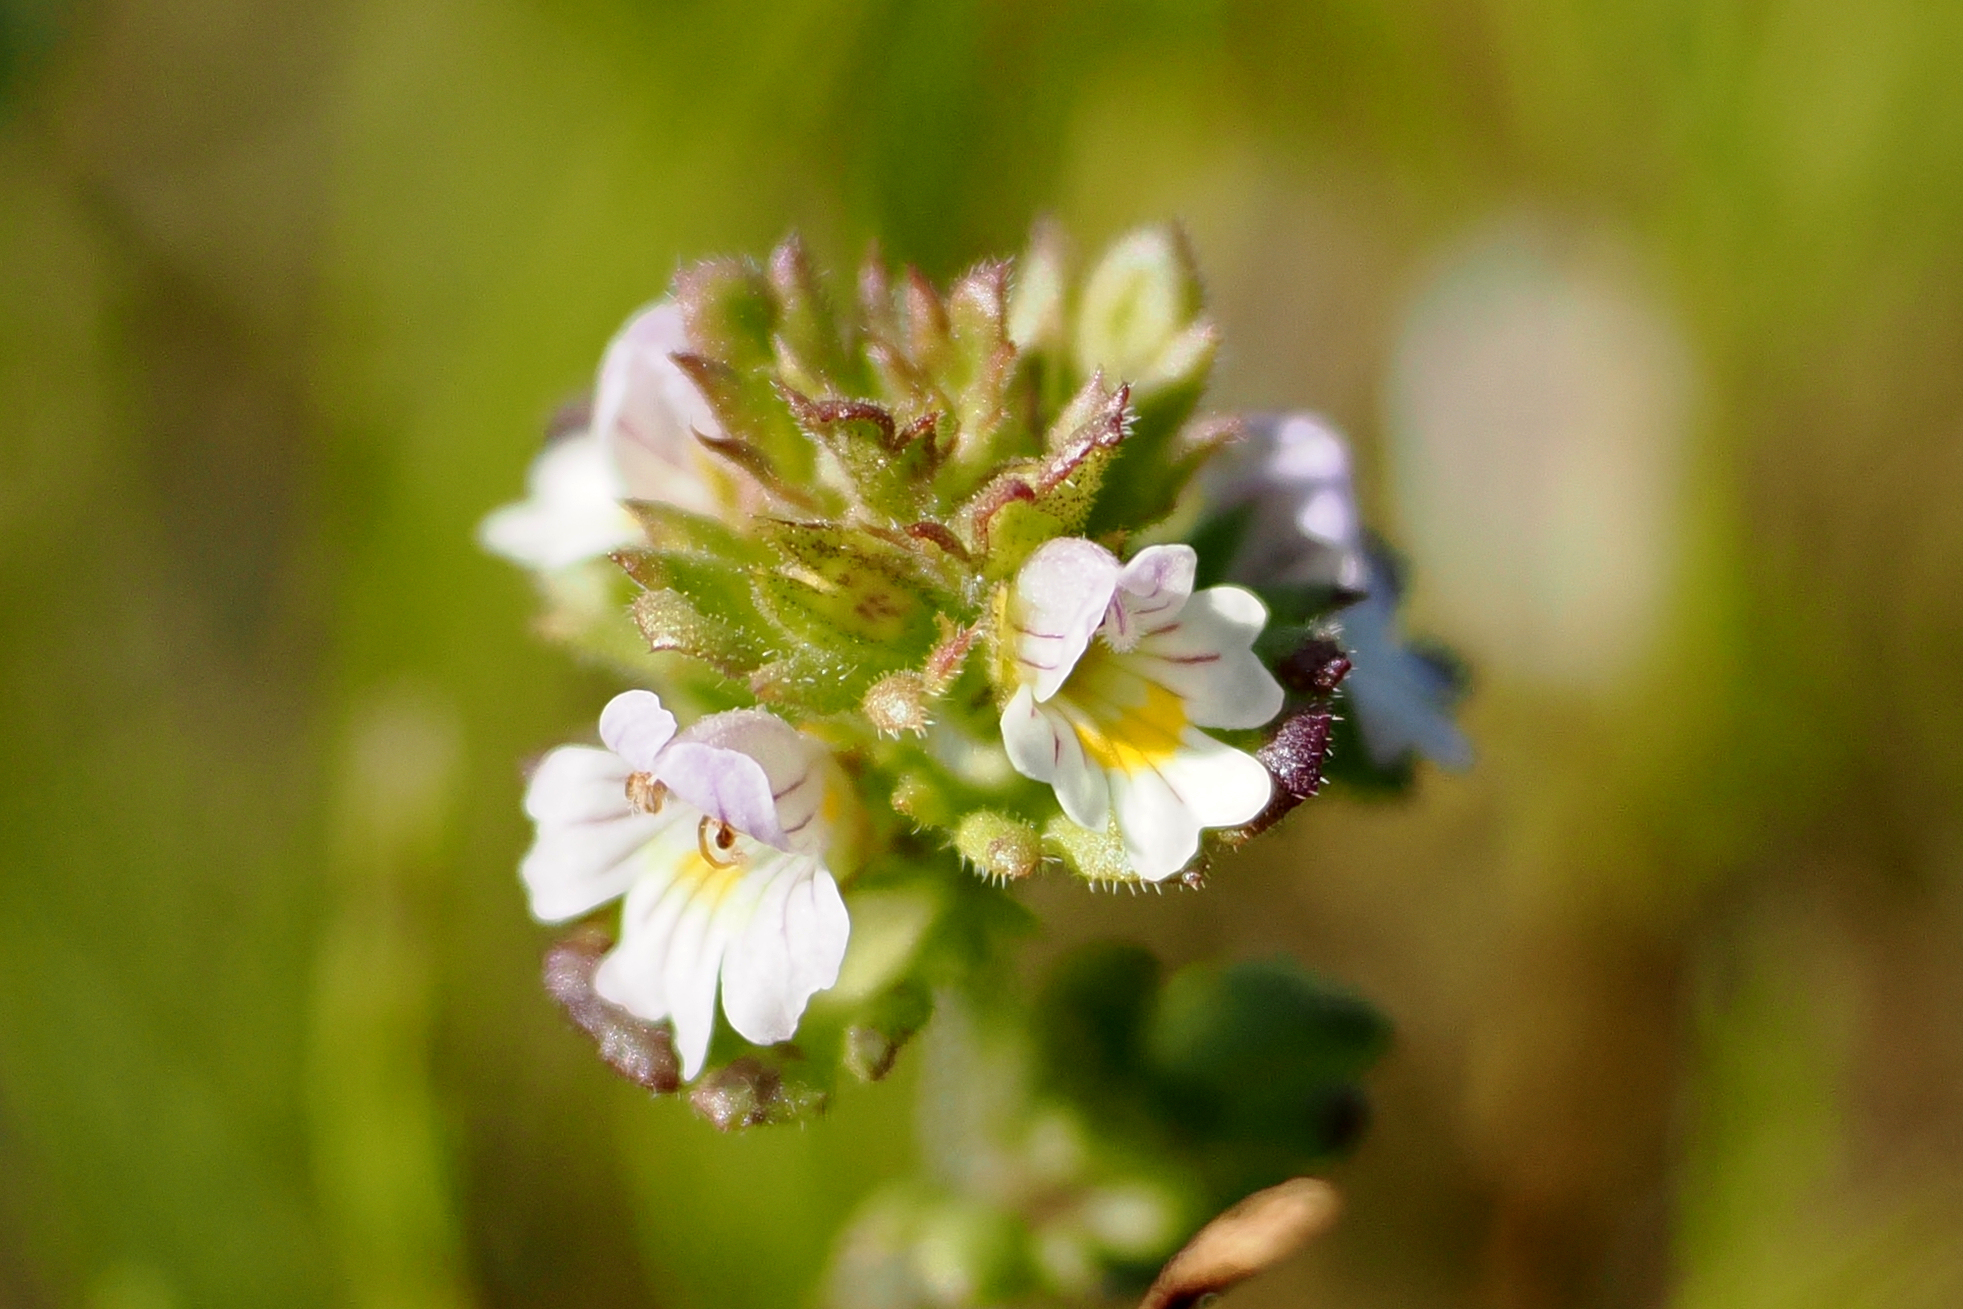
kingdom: Plantae
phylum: Tracheophyta
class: Magnoliopsida
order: Lamiales
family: Orobanchaceae
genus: Euphrasia
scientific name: Euphrasia frigida
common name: An eyebright
